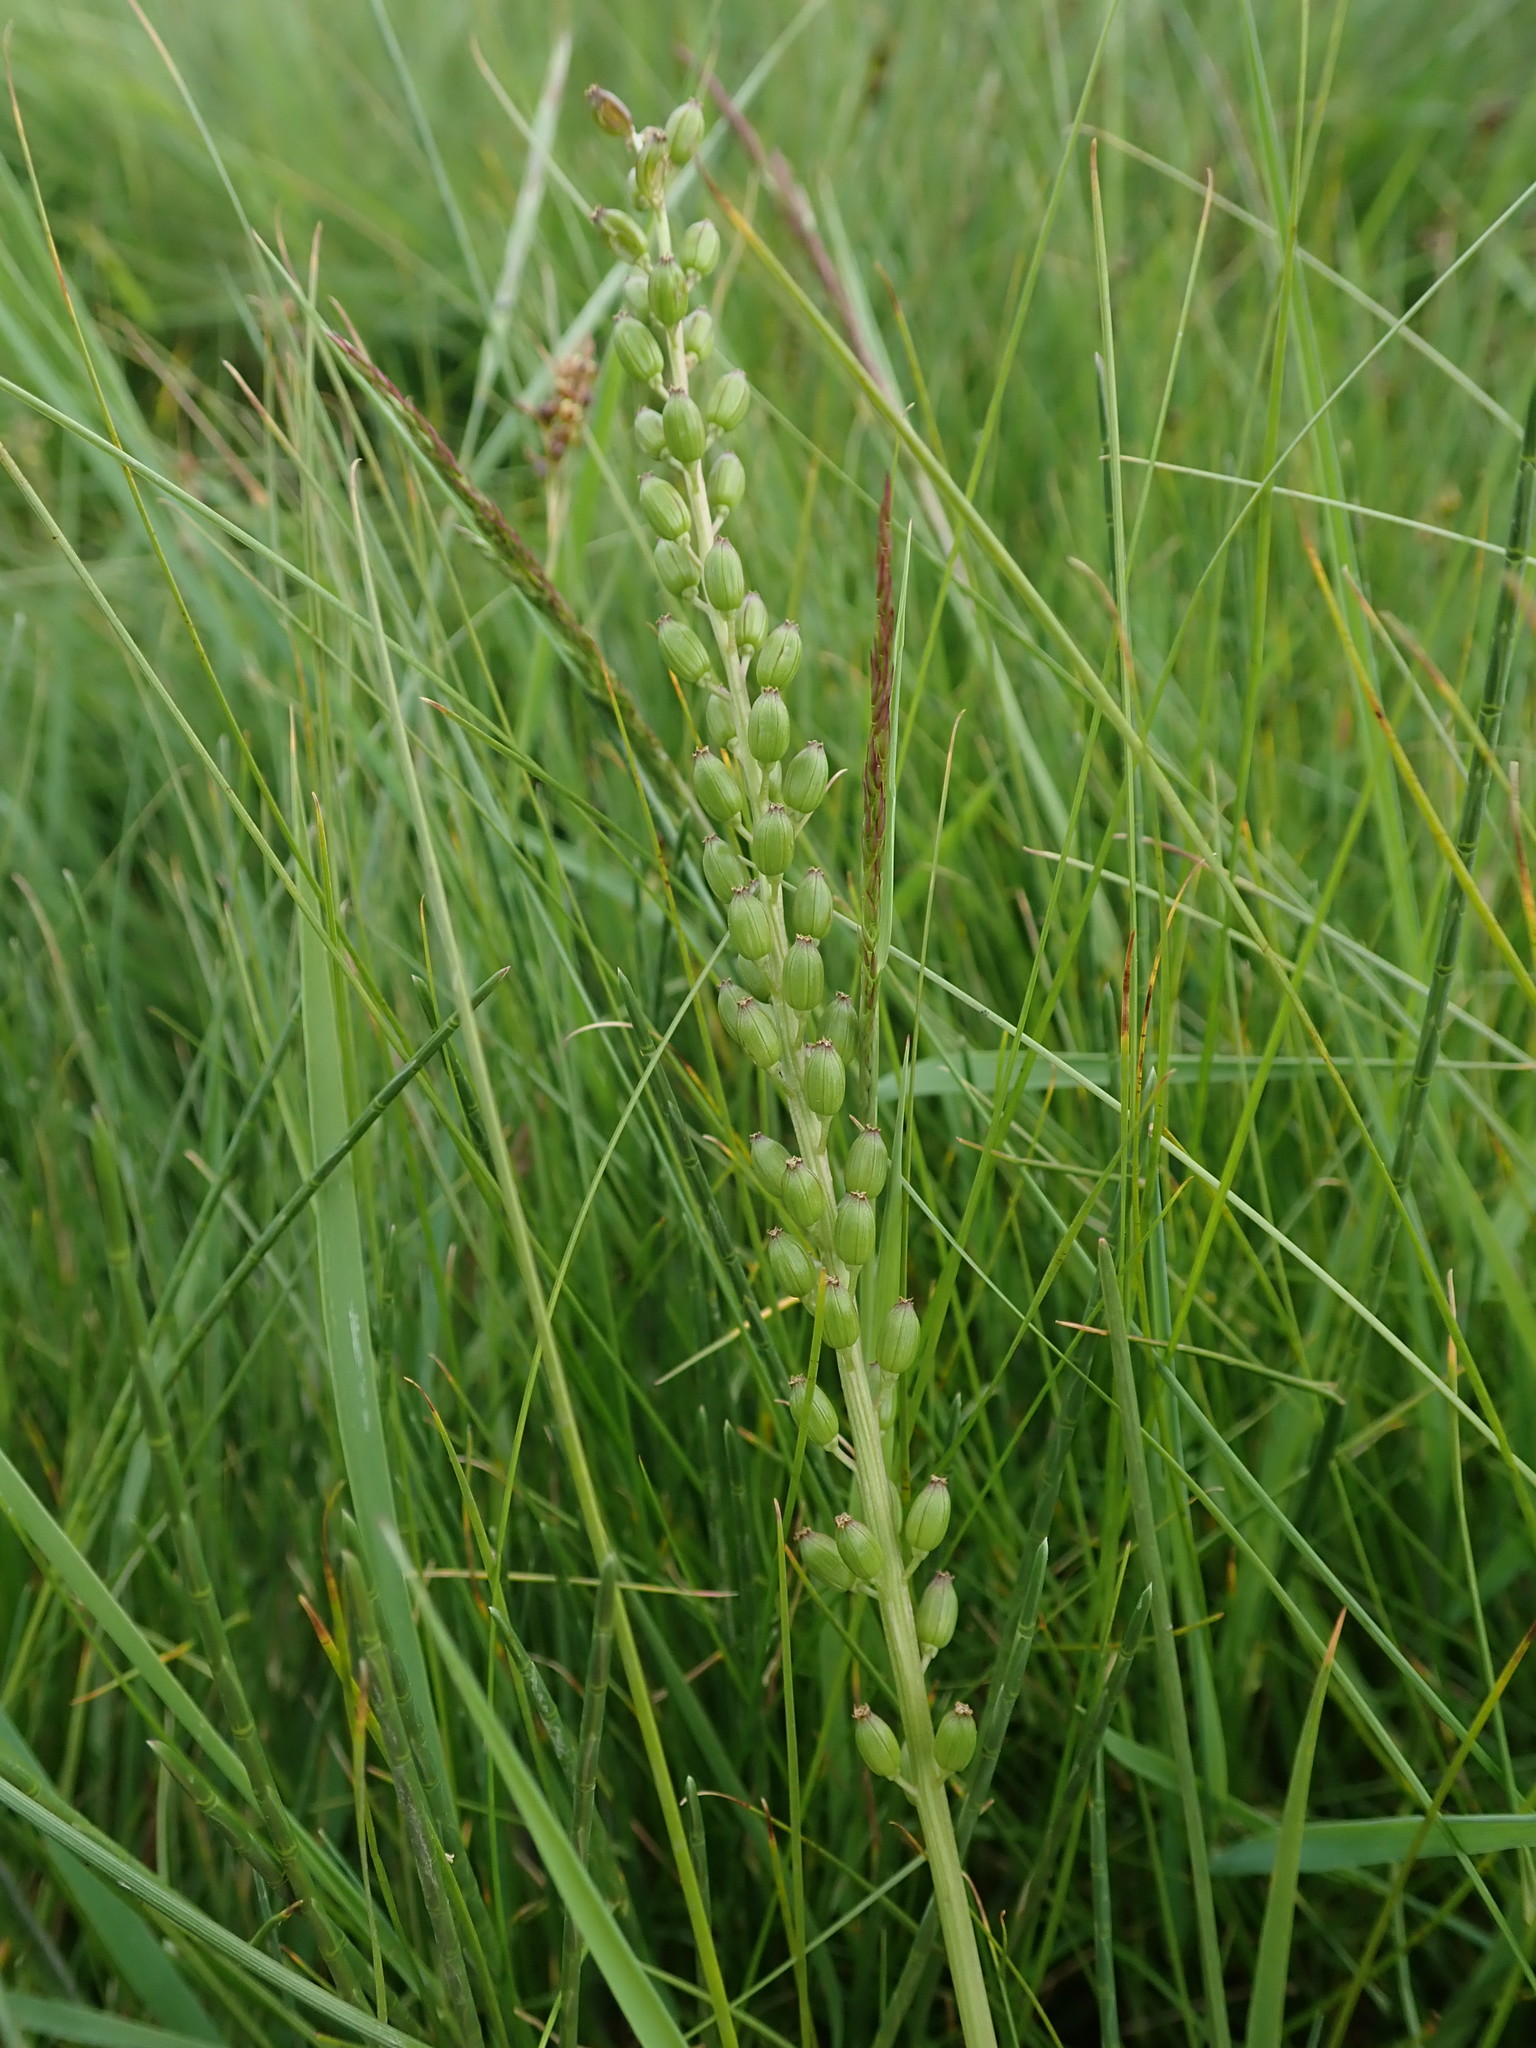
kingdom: Plantae
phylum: Tracheophyta
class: Liliopsida
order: Alismatales
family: Juncaginaceae
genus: Triglochin
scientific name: Triglochin maritima
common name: Sea arrowgrass
